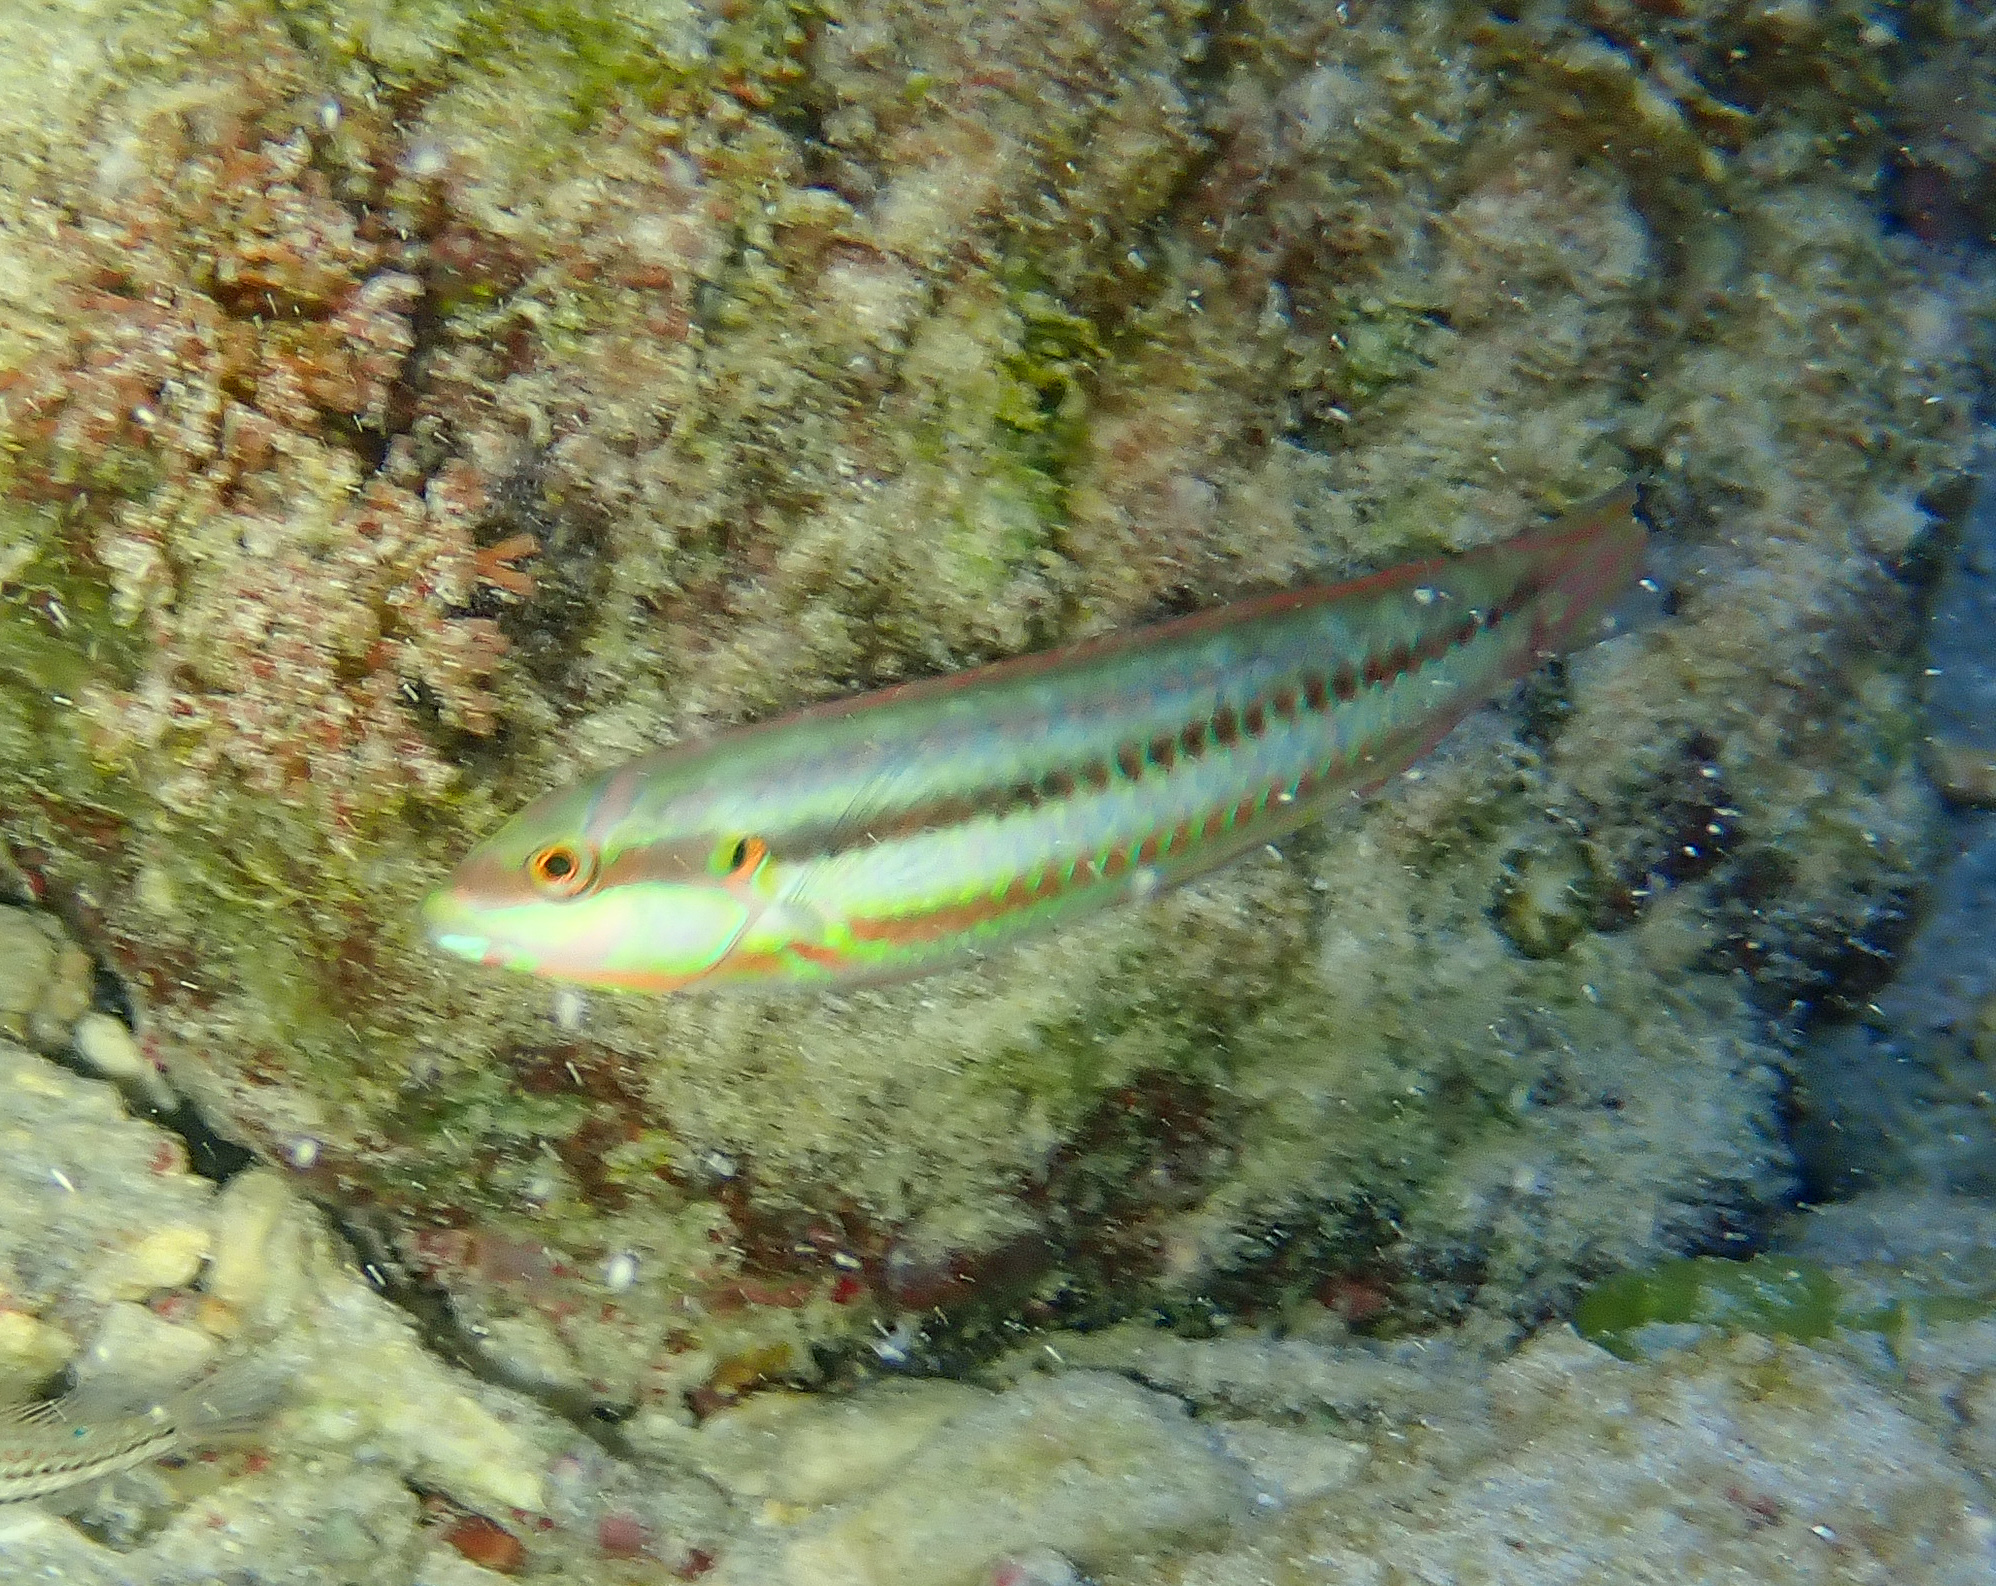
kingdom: Animalia
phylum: Chordata
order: Perciformes
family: Labridae
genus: Halichoeres
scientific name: Halichoeres bivittatus
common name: Slippery dick
